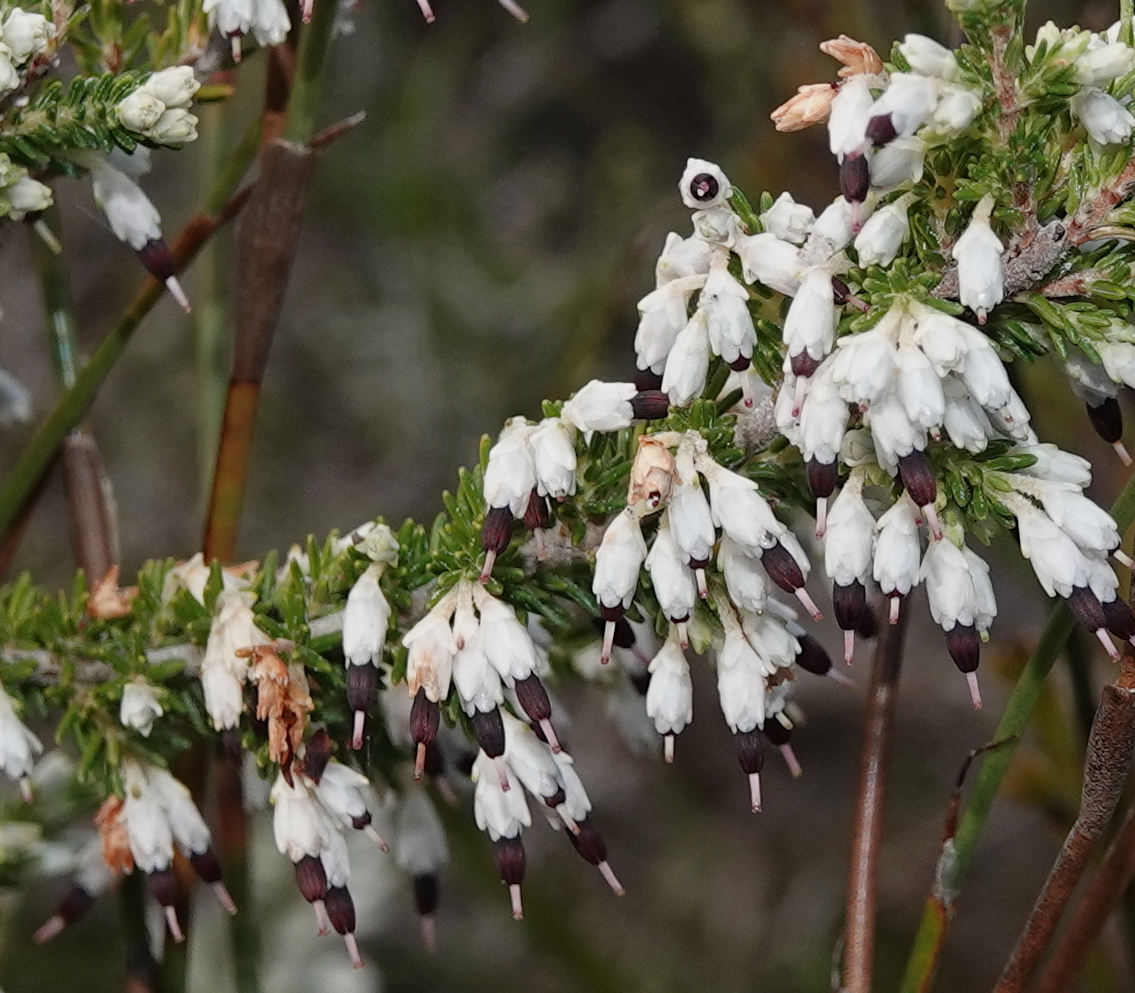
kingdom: Plantae
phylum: Tracheophyta
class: Magnoliopsida
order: Ericales
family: Ericaceae
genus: Erica
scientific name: Erica imbricata
